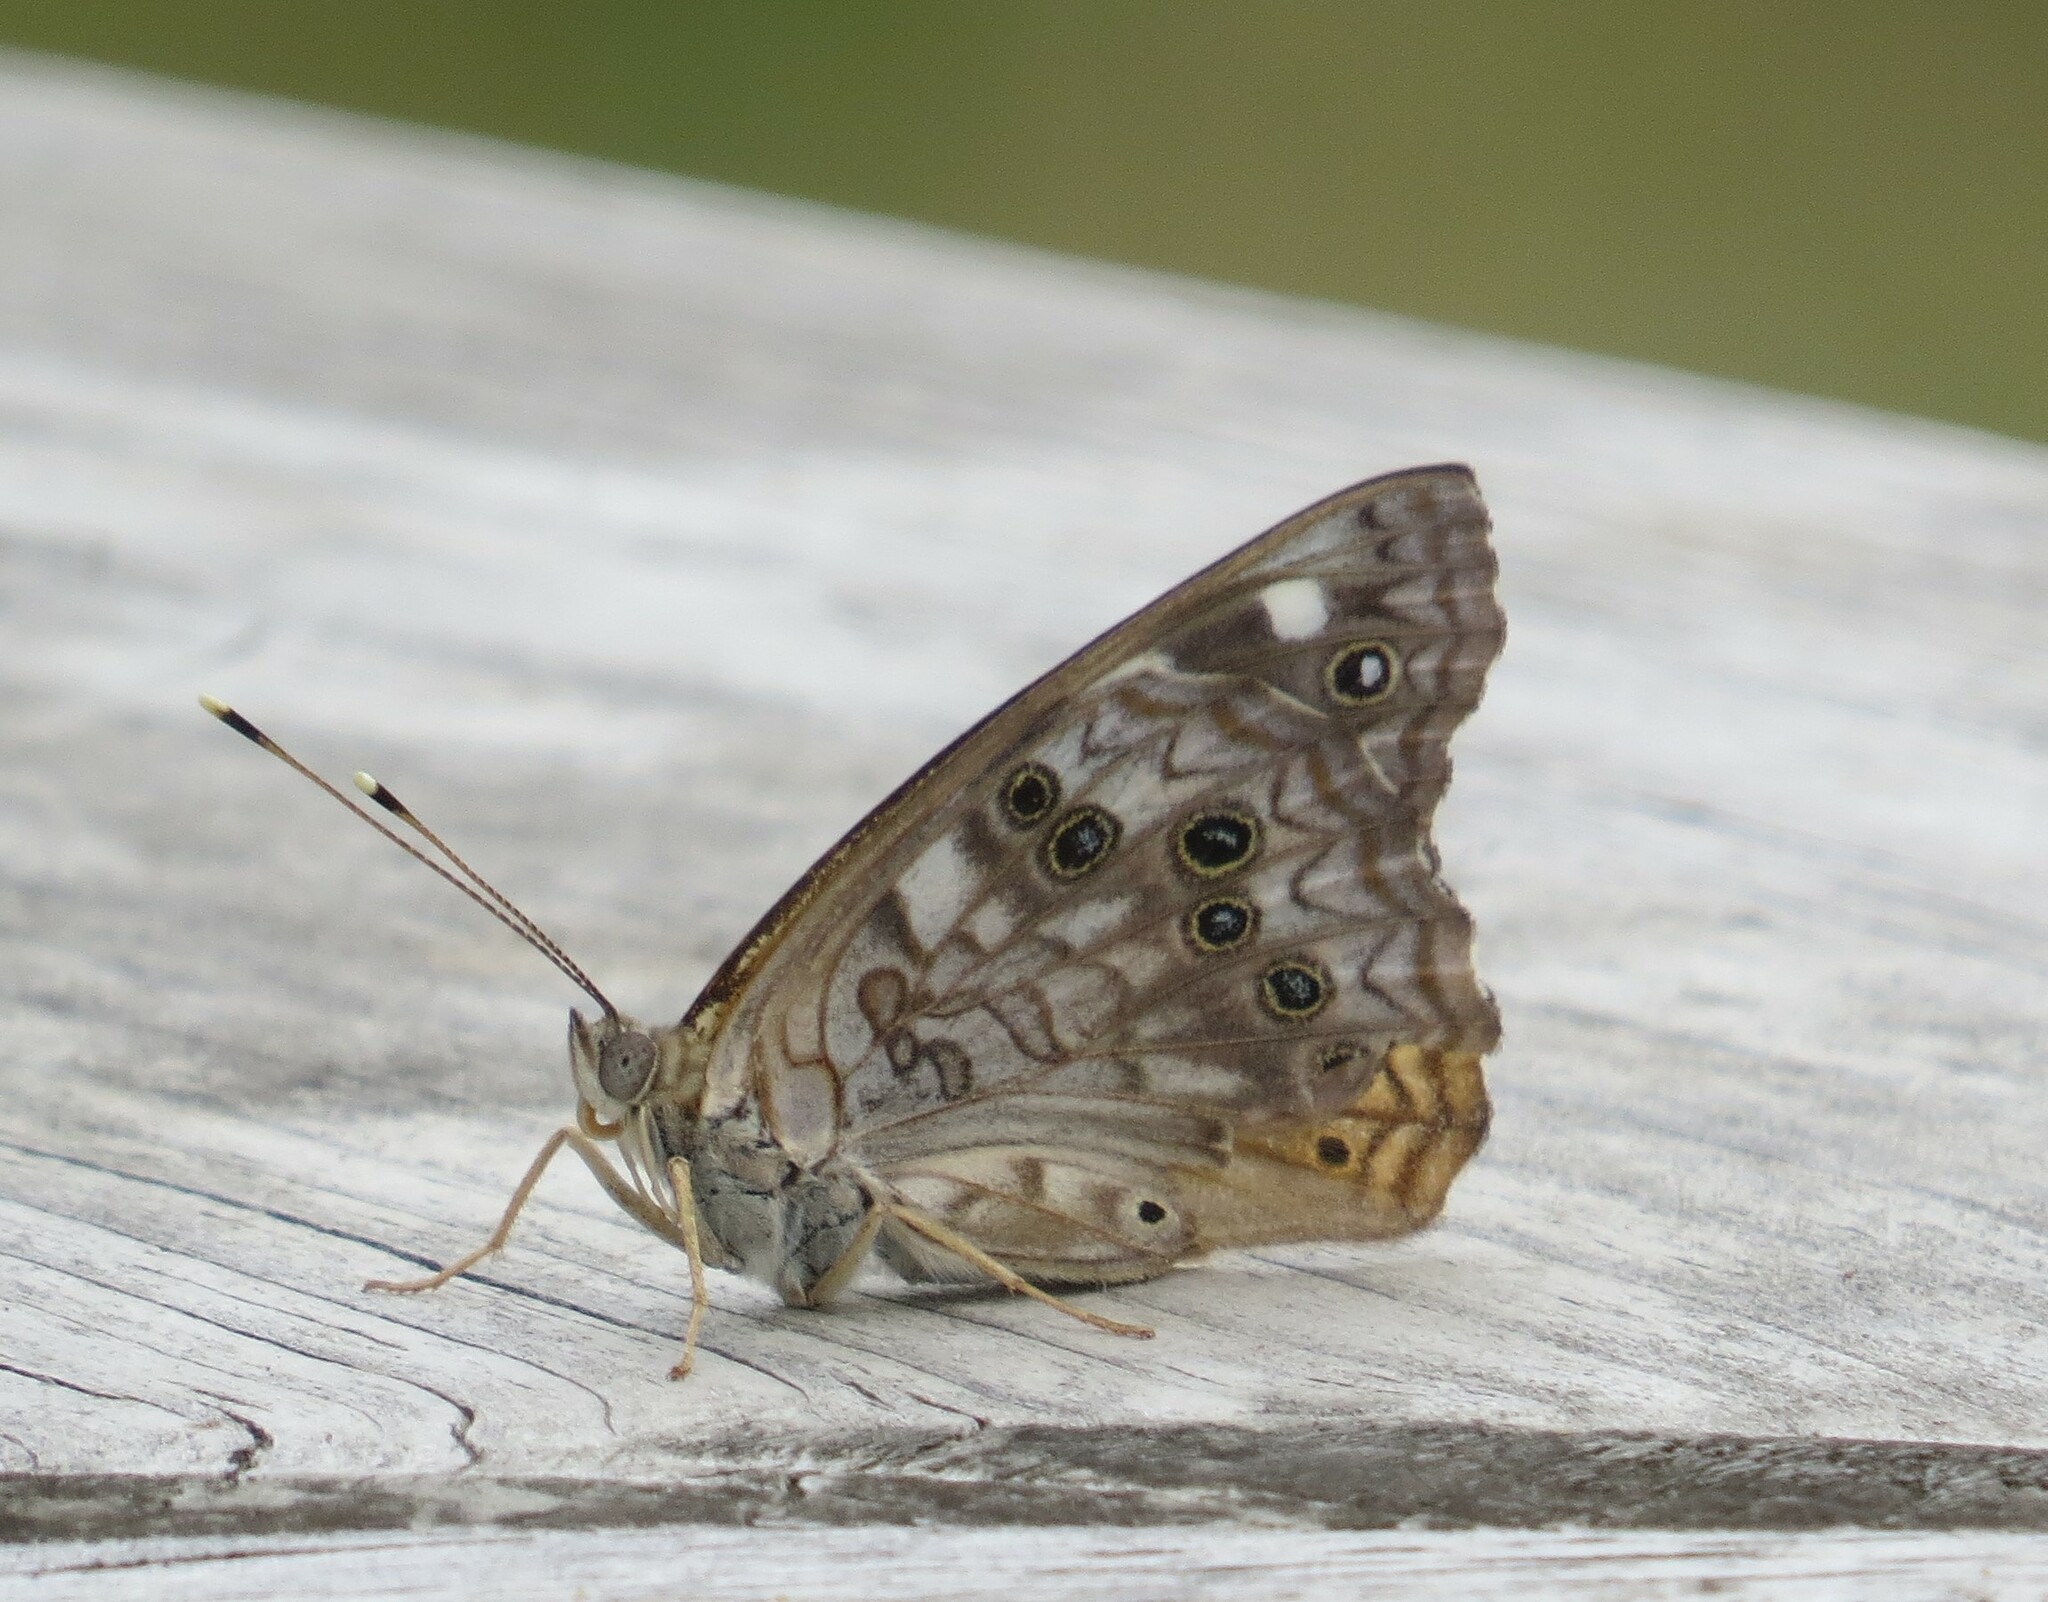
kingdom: Animalia
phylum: Arthropoda
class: Insecta
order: Lepidoptera
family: Nymphalidae
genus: Asterocampa
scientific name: Asterocampa celtis
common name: Hackberry emperor
